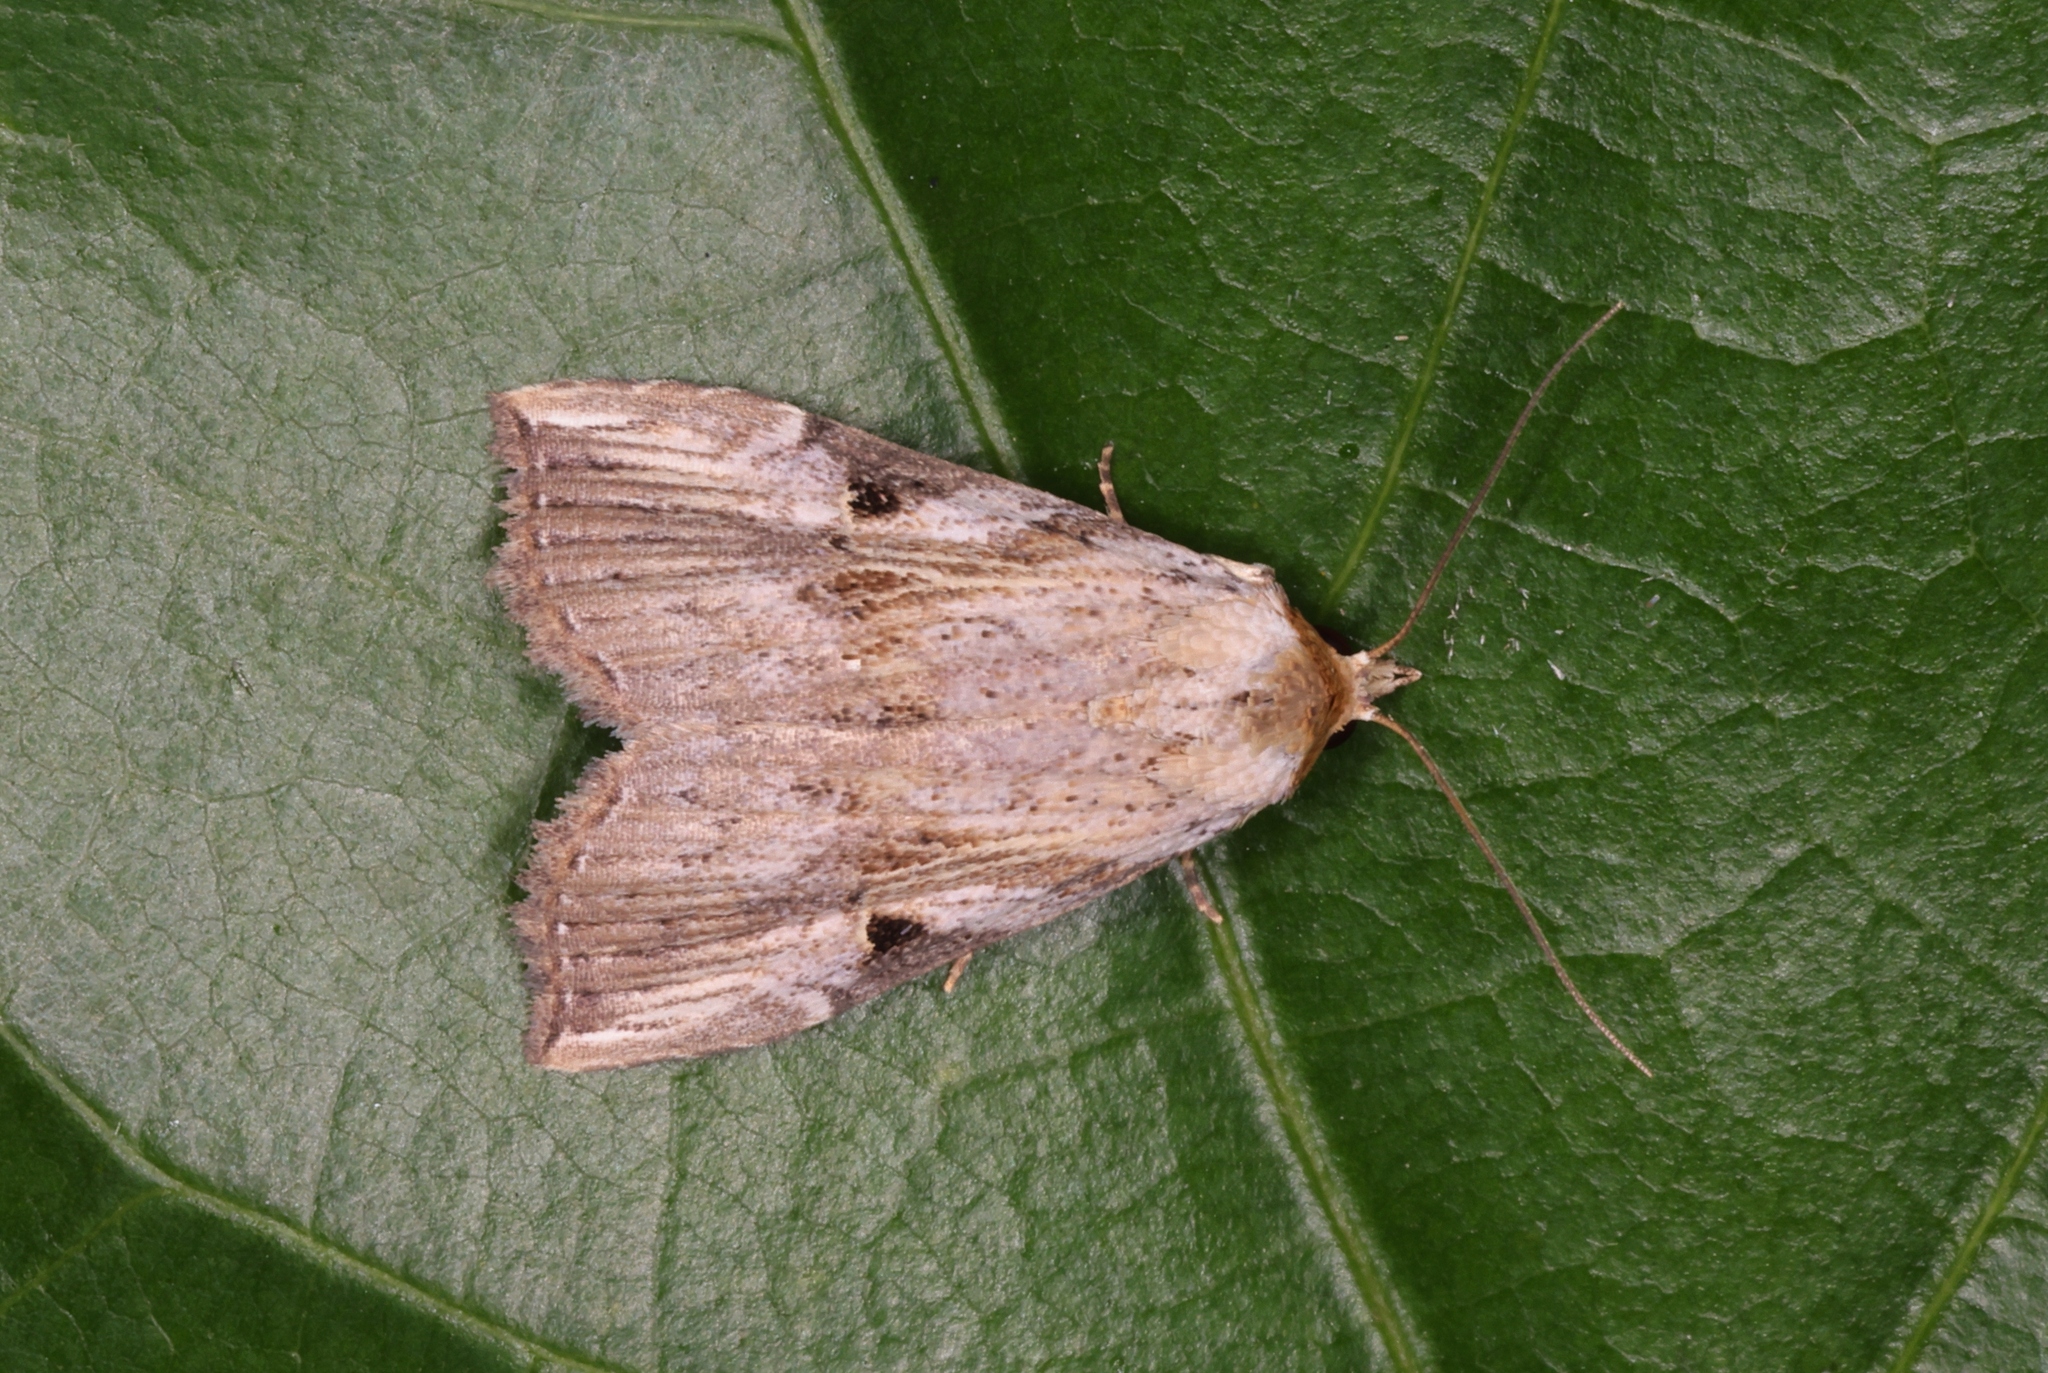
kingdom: Animalia
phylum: Arthropoda
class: Insecta
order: Lepidoptera
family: Noctuidae
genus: Microxyla
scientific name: Microxyla confusa
